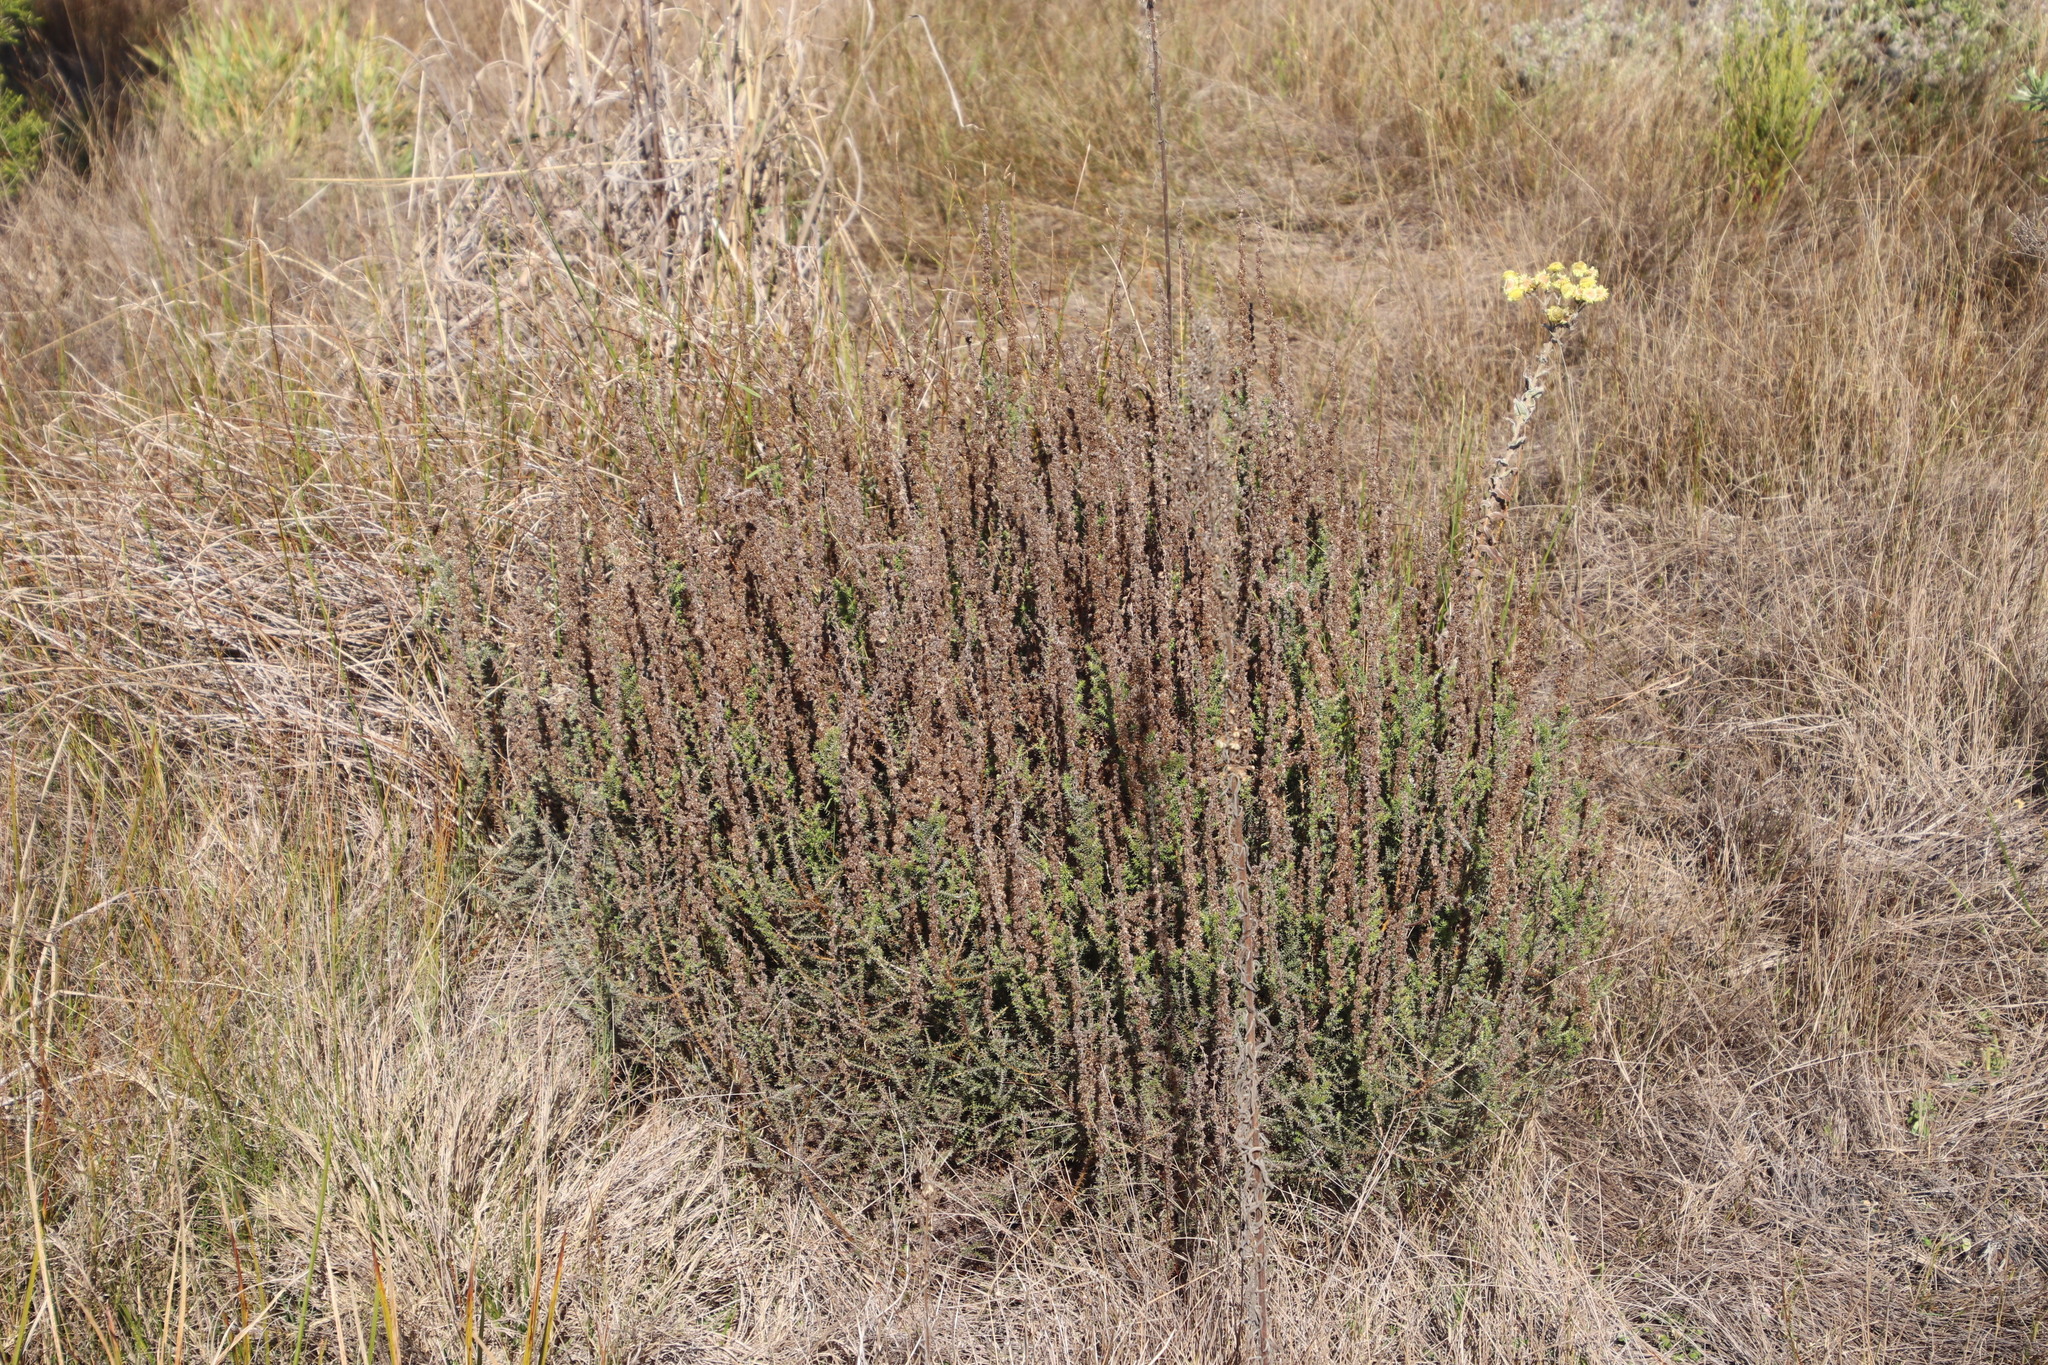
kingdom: Plantae
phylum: Tracheophyta
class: Magnoliopsida
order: Asterales
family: Asteraceae
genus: Seriphium
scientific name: Seriphium cinereum
